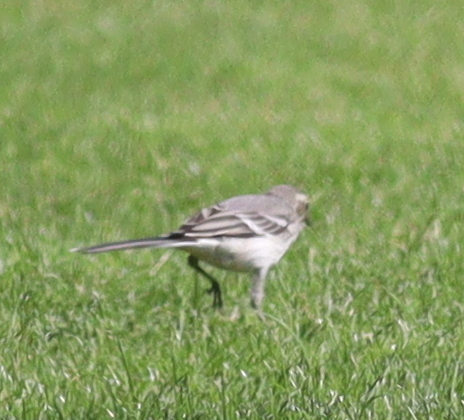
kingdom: Animalia
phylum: Chordata
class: Aves
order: Passeriformes
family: Motacillidae
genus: Motacilla
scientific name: Motacilla alba
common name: White wagtail
